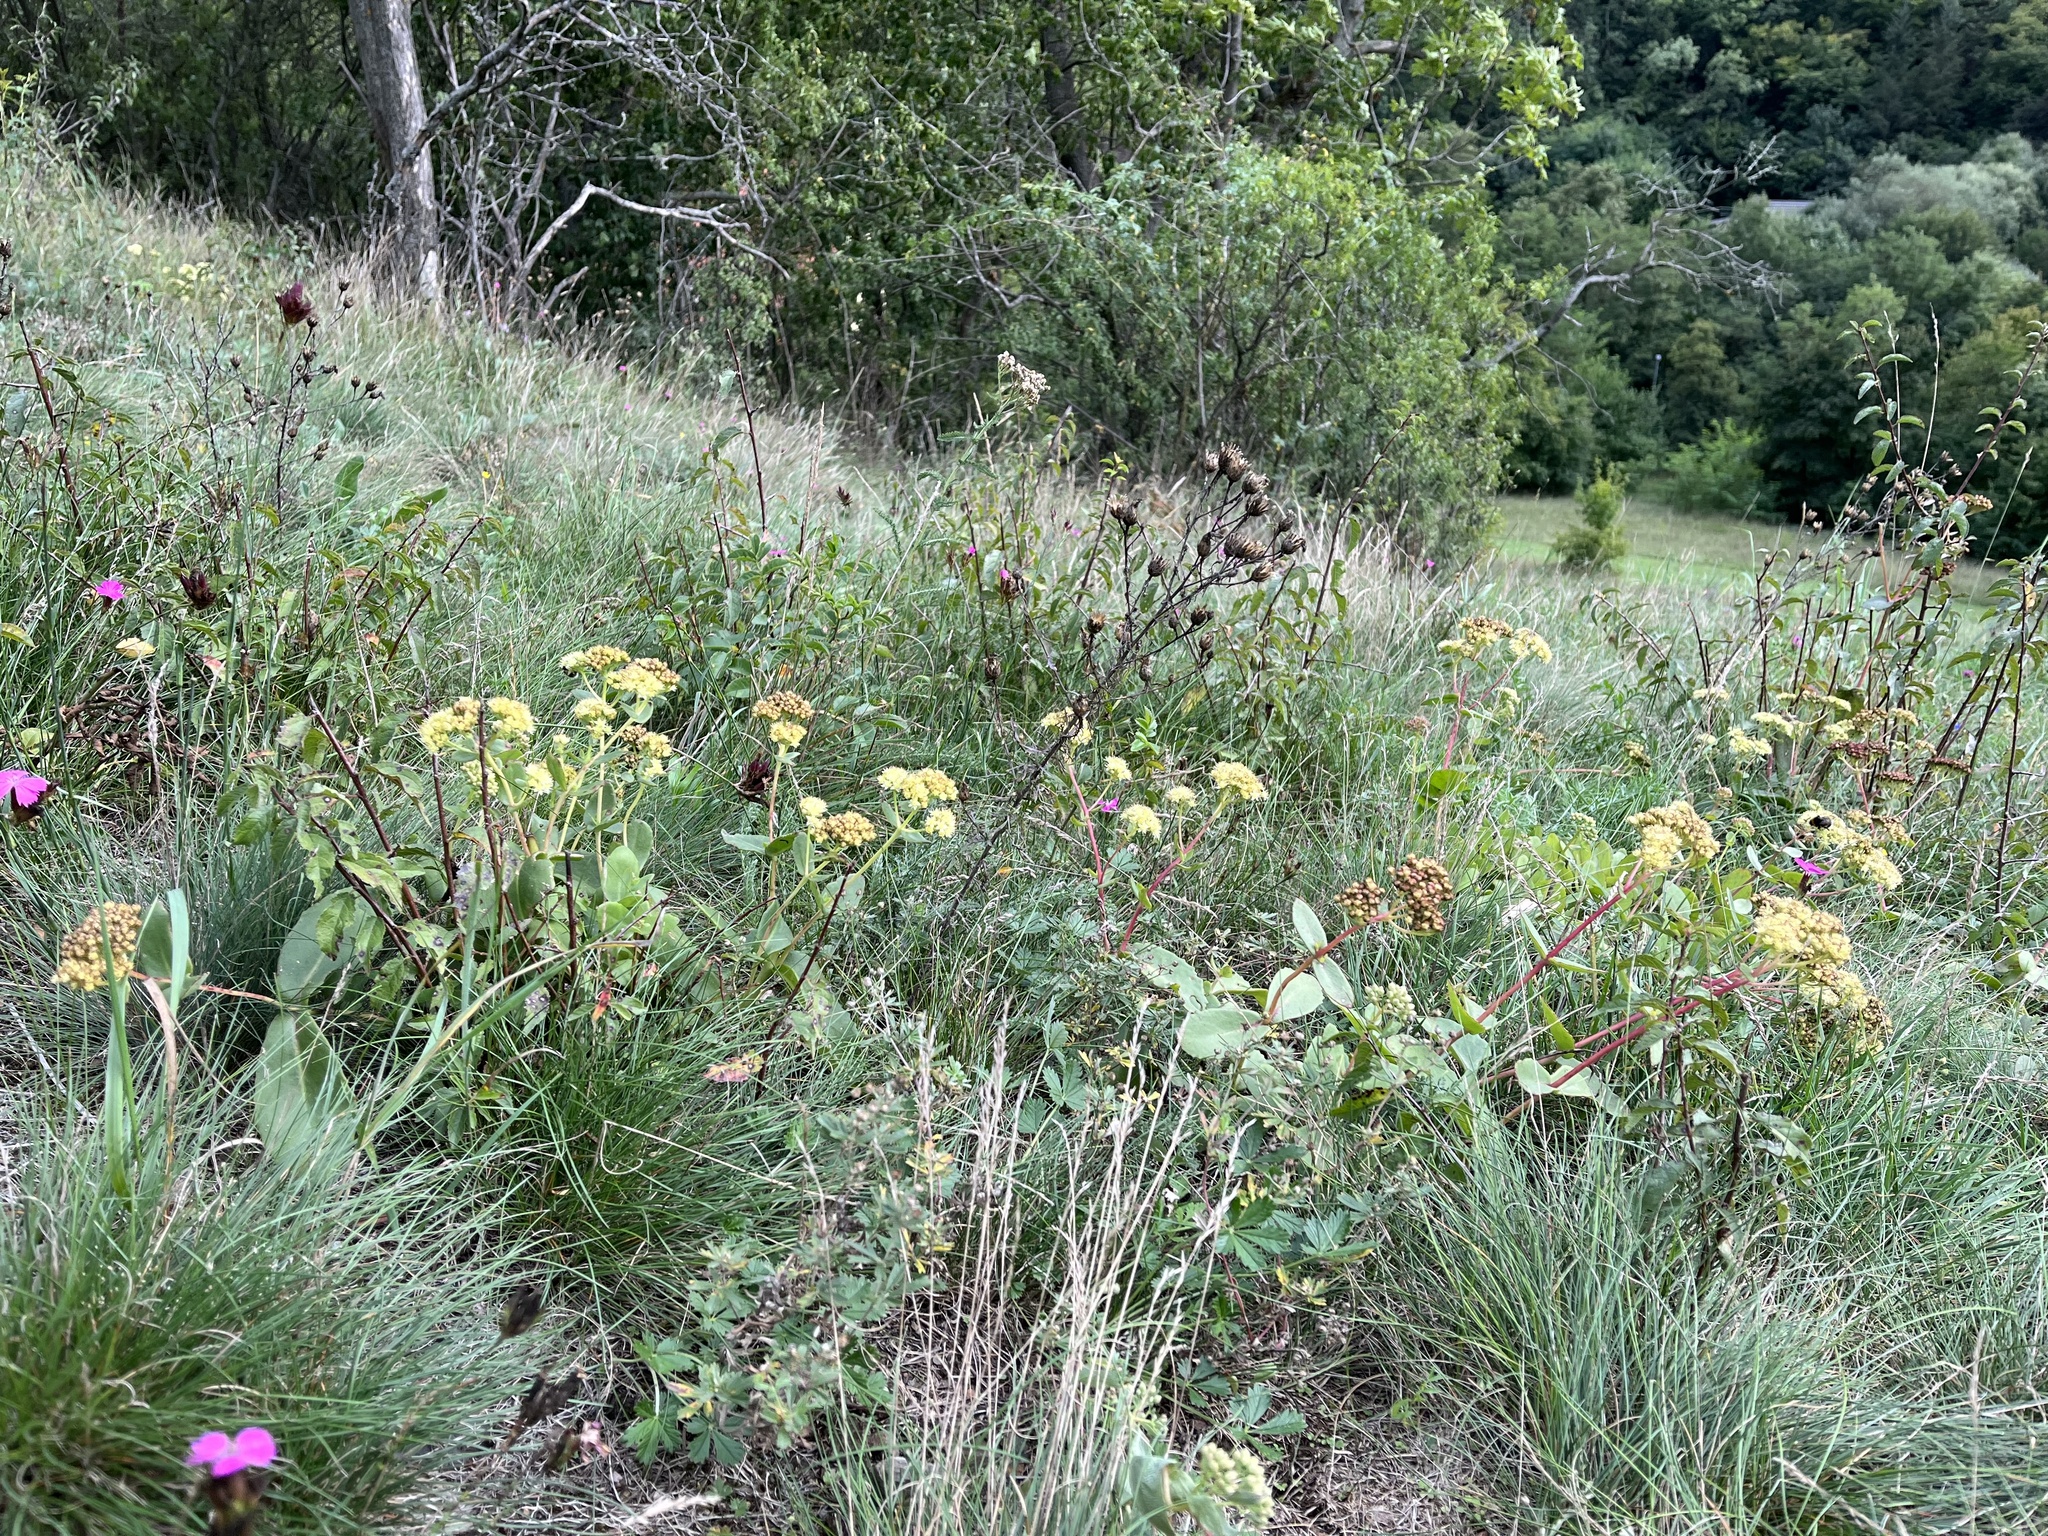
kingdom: Plantae
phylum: Tracheophyta
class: Magnoliopsida
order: Saxifragales
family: Crassulaceae
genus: Hylotelephium
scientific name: Hylotelephium maximum
